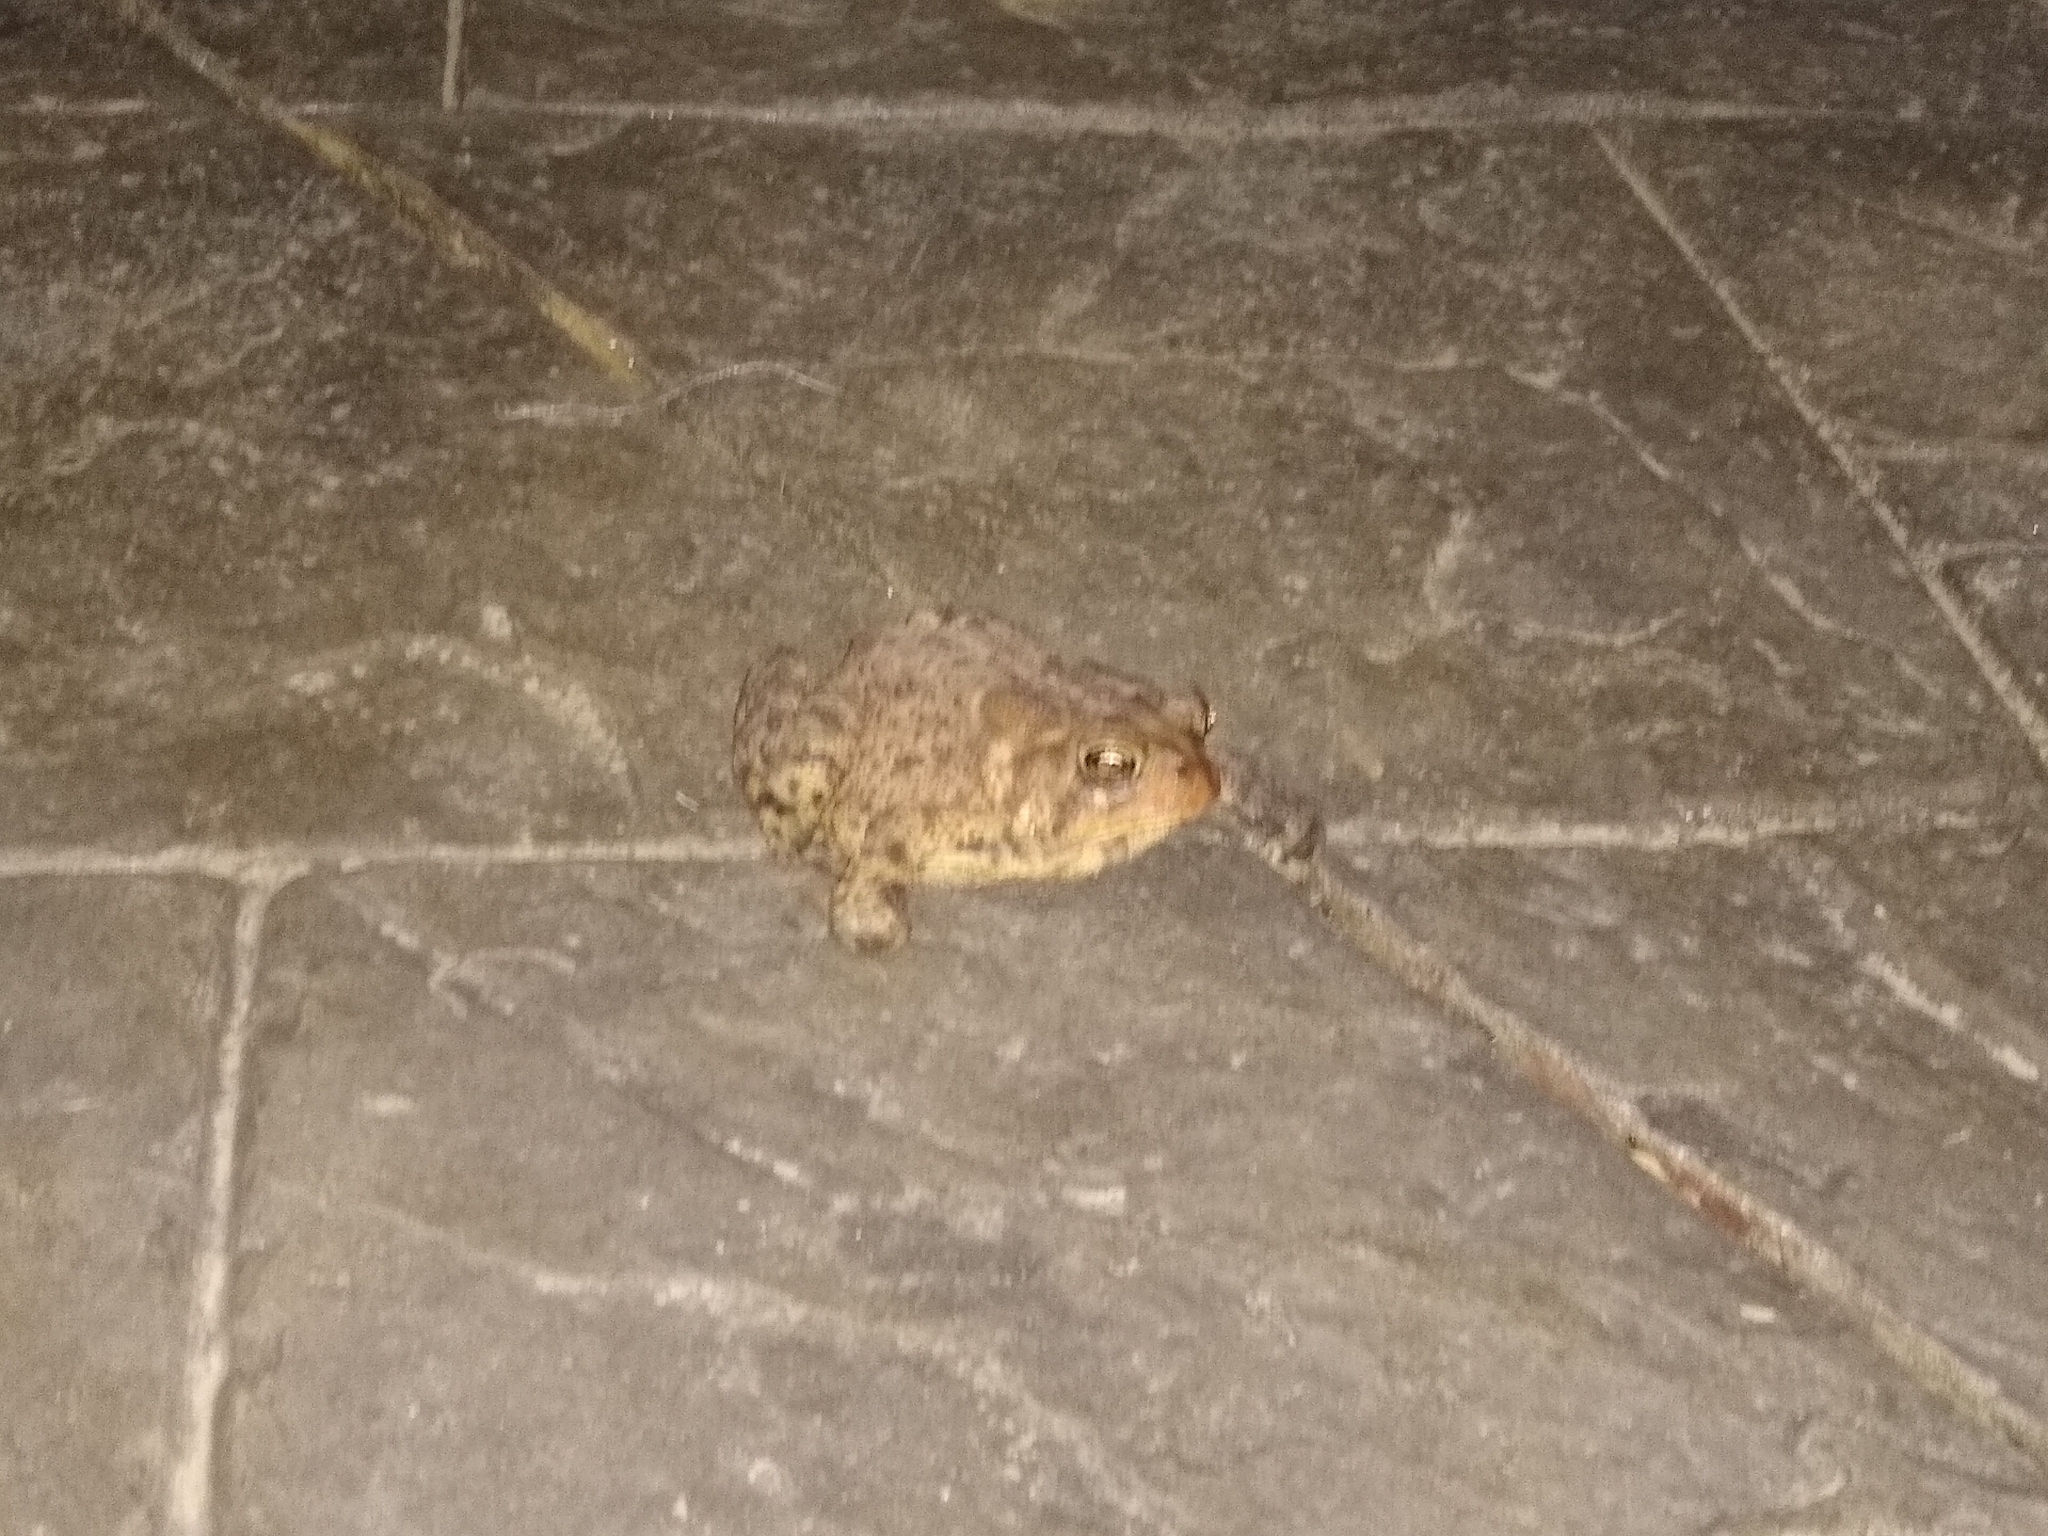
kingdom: Animalia
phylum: Chordata
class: Amphibia
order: Anura
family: Bufonidae
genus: Anaxyrus
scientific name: Anaxyrus americanus
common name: American toad
